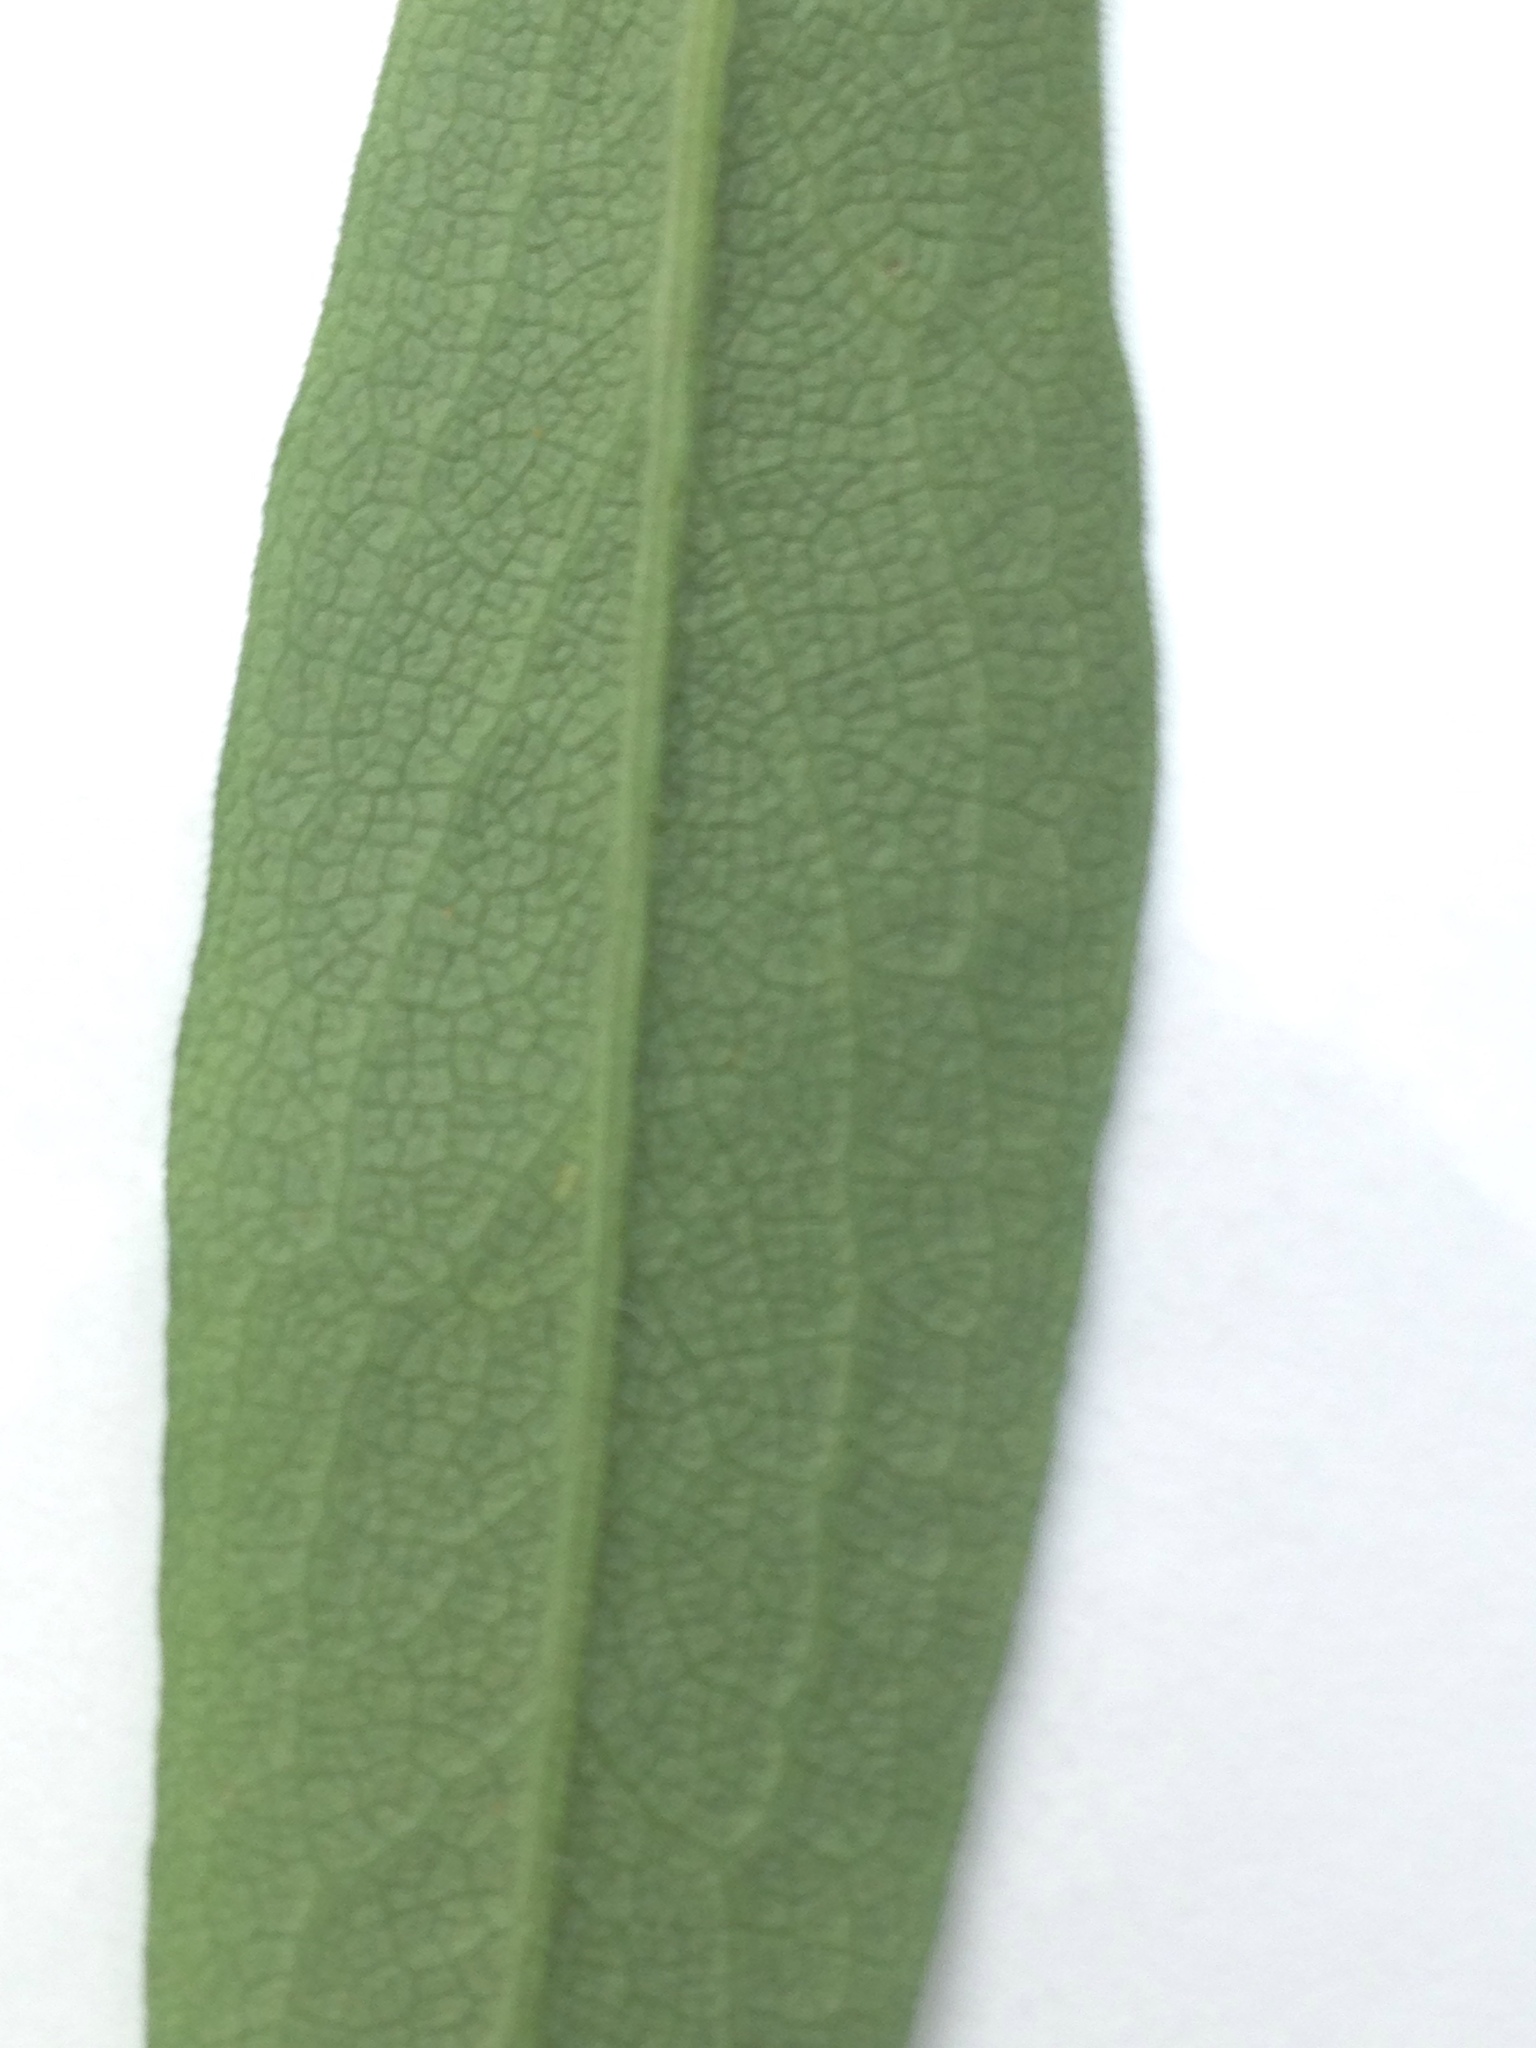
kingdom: Plantae
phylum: Tracheophyta
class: Magnoliopsida
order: Asterales
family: Asteraceae
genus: Symphyotrichum
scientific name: Symphyotrichum novae-angliae
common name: Michaelmas daisy
